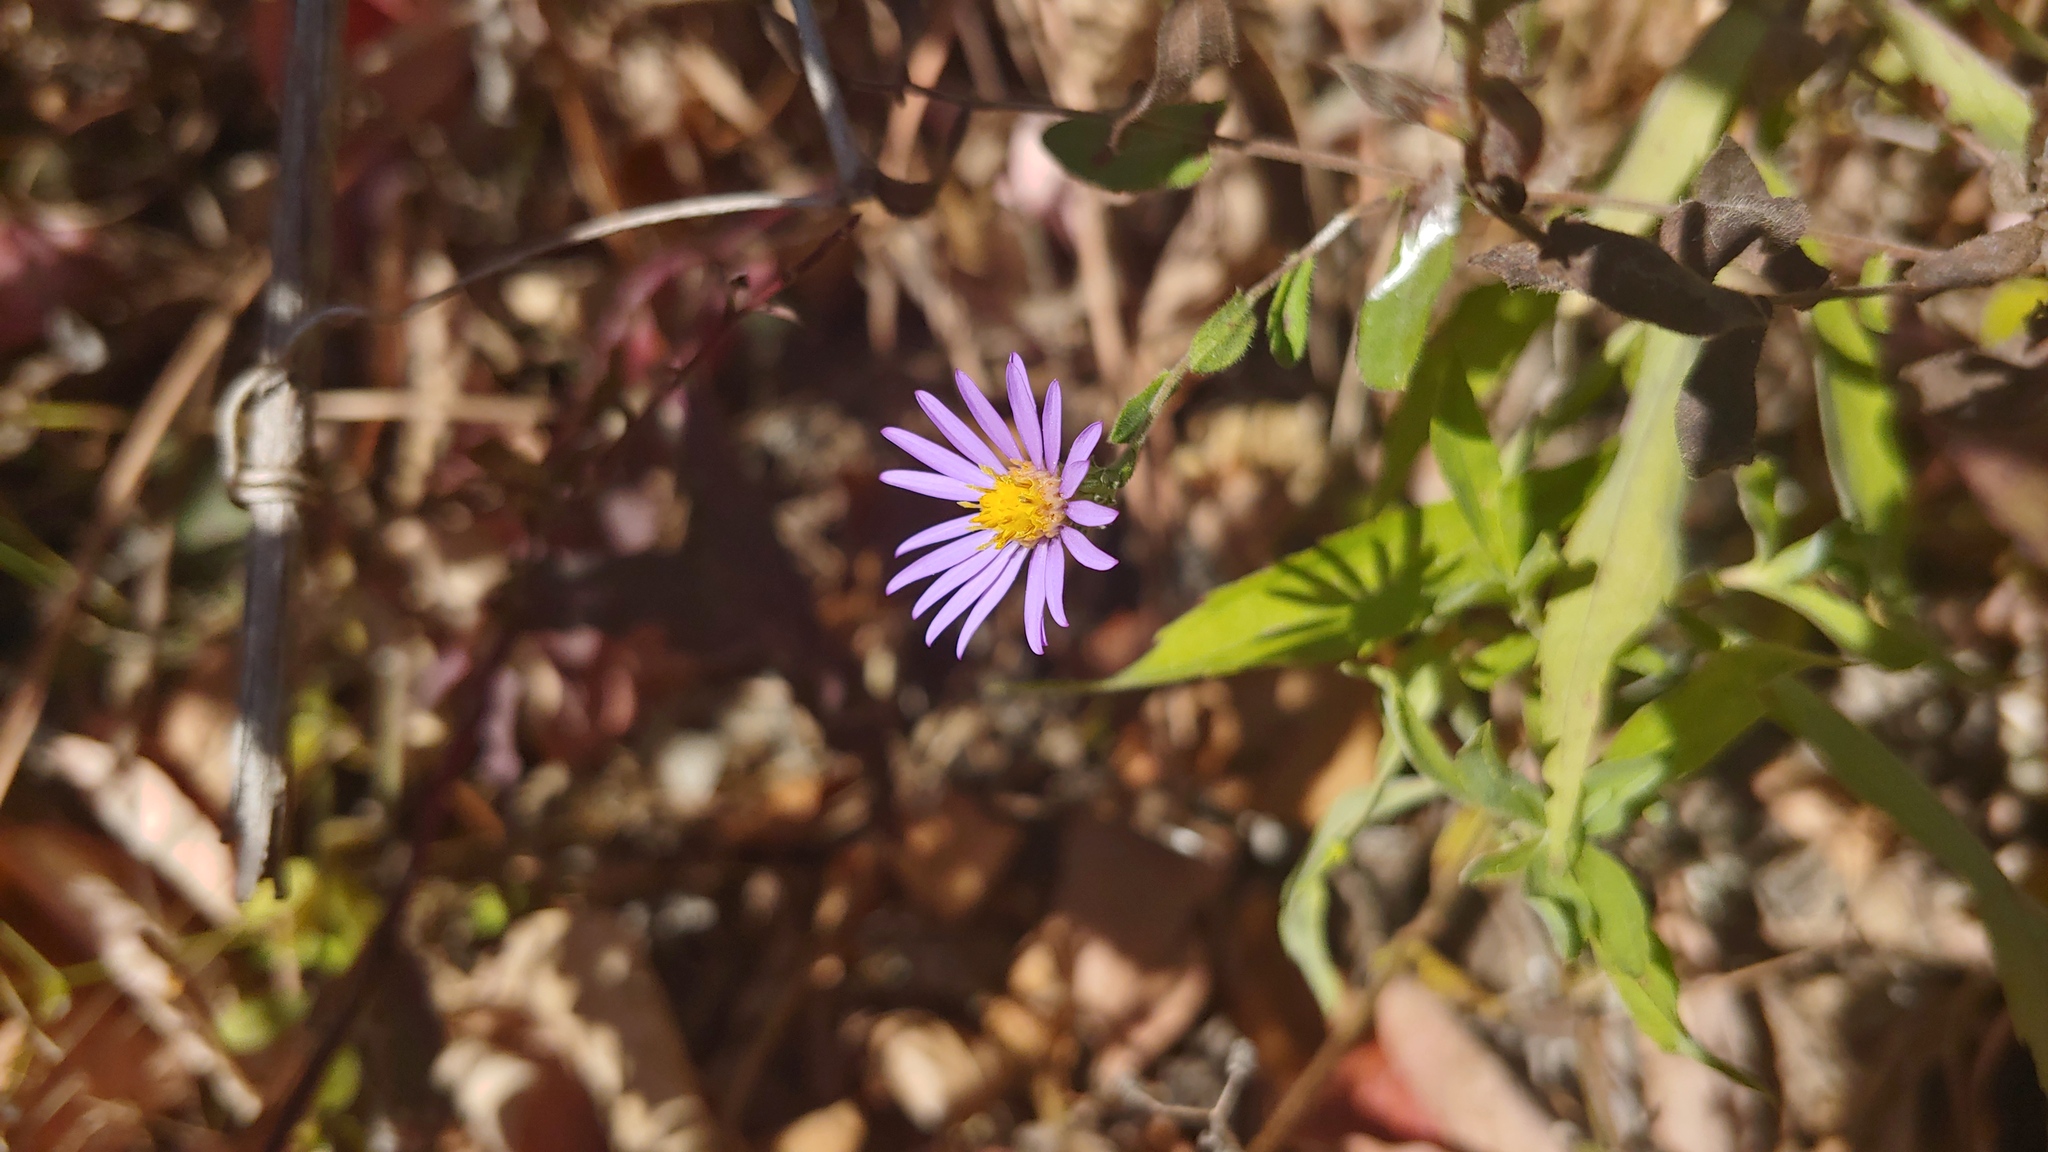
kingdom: Plantae
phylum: Tracheophyta
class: Magnoliopsida
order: Asterales
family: Asteraceae
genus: Symphyotrichum
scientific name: Symphyotrichum patens
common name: Late purple aster
